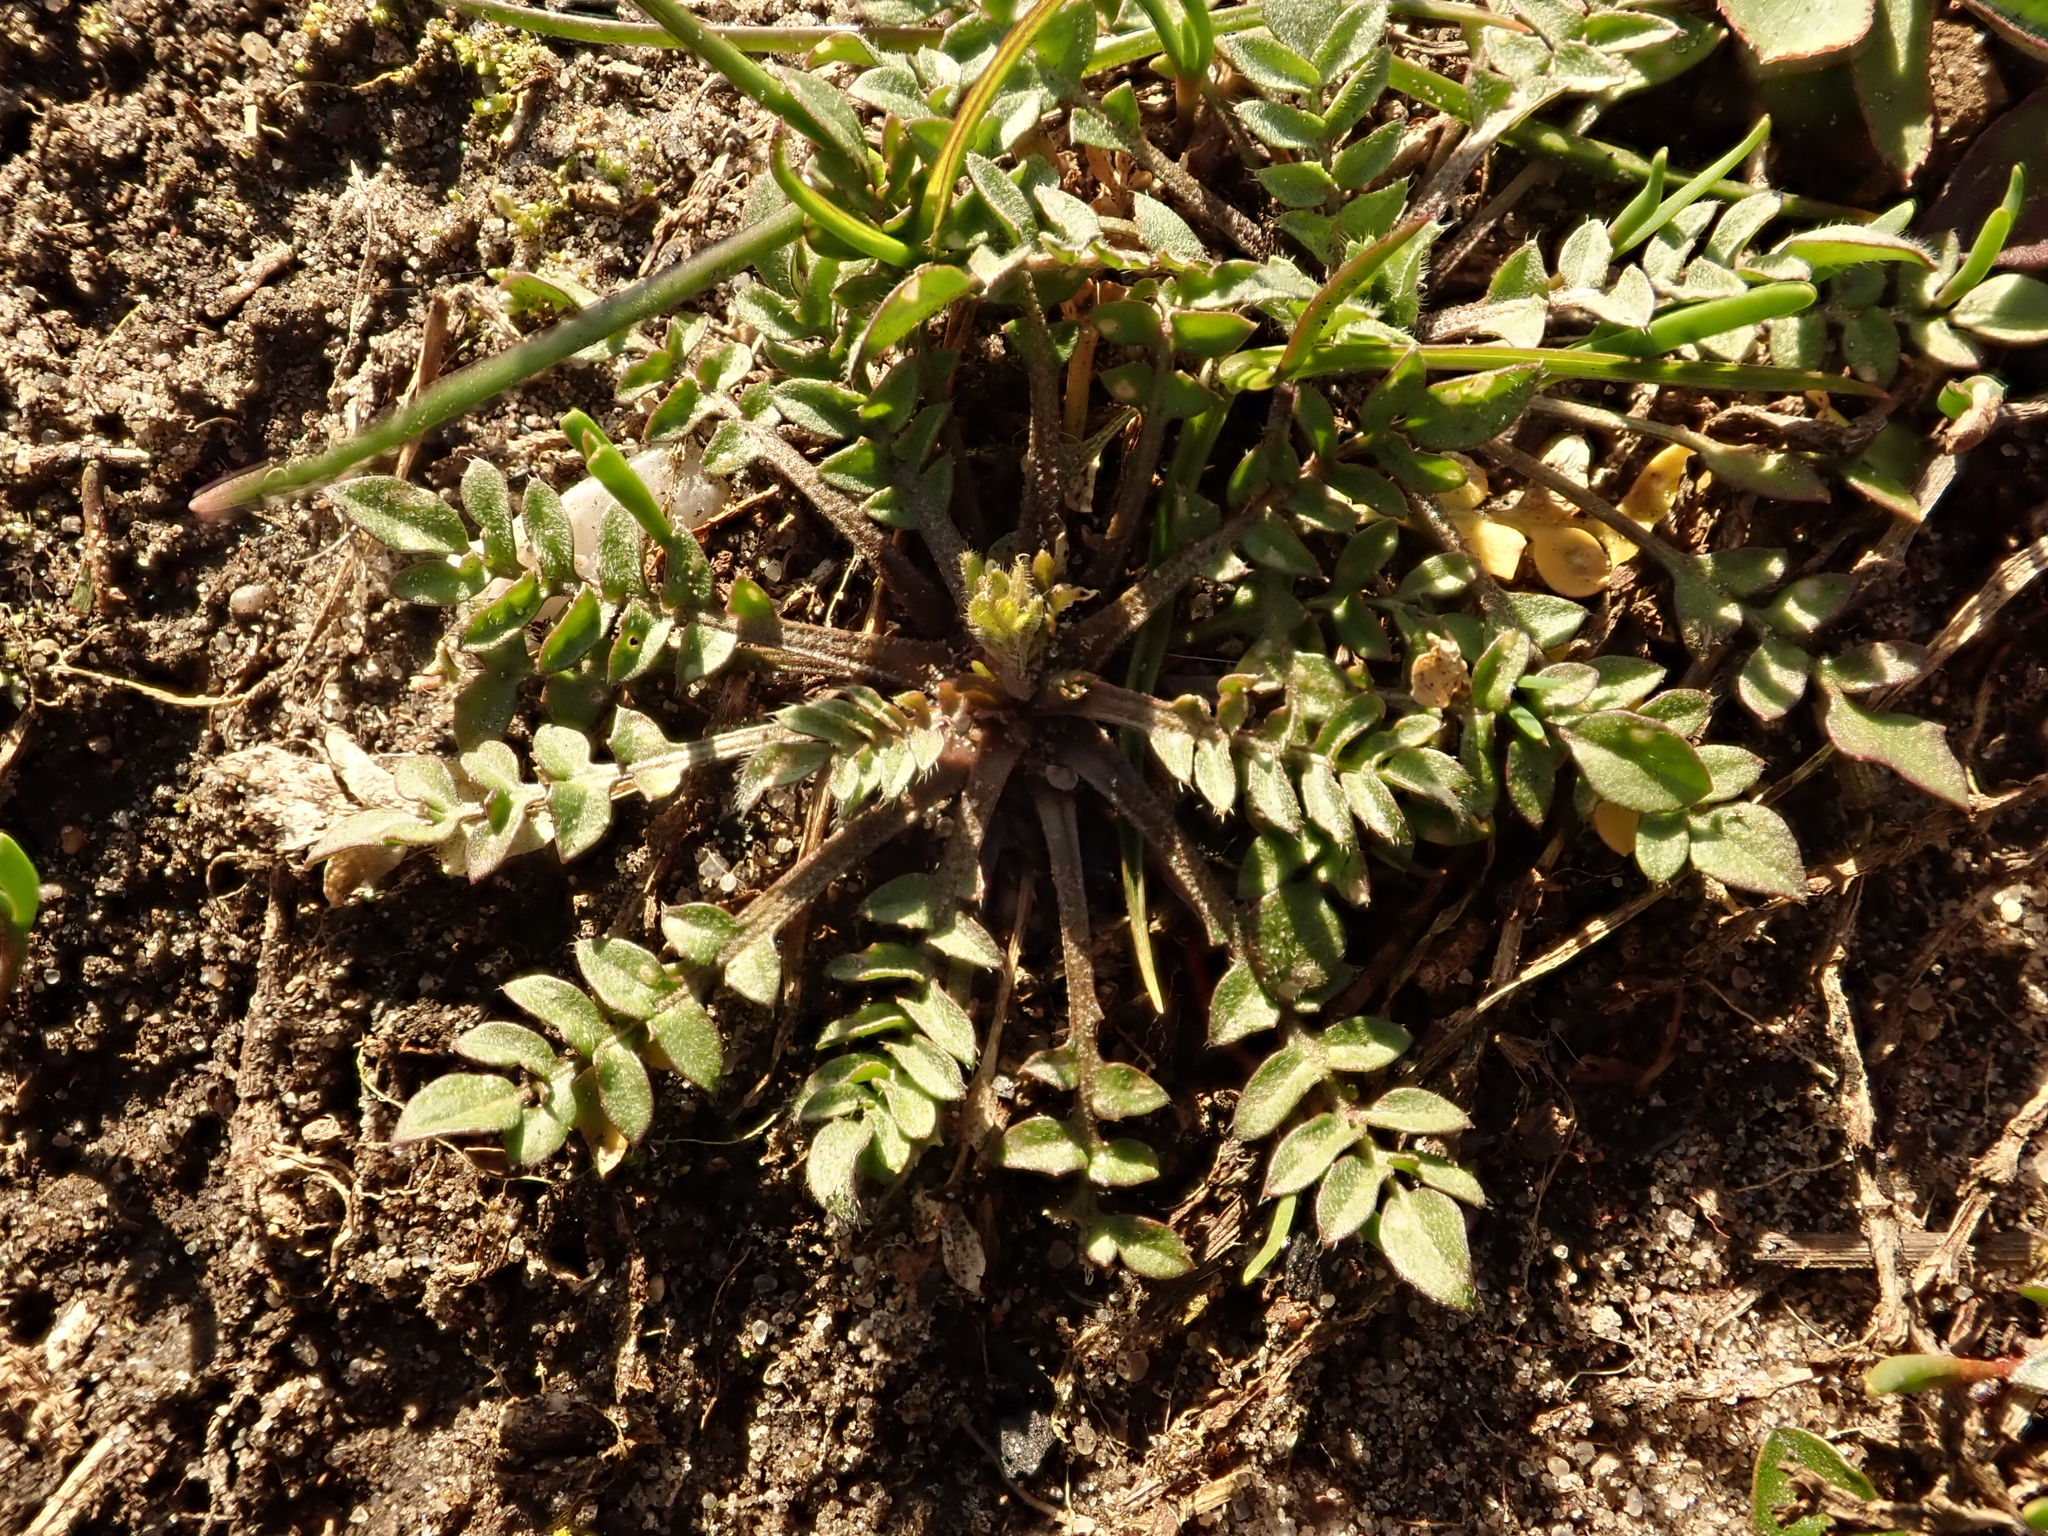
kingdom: Plantae
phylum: Tracheophyta
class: Magnoliopsida
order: Brassicales
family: Brassicaceae
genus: Capsella
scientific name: Capsella bursa-pastoris
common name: Shepherd's purse
